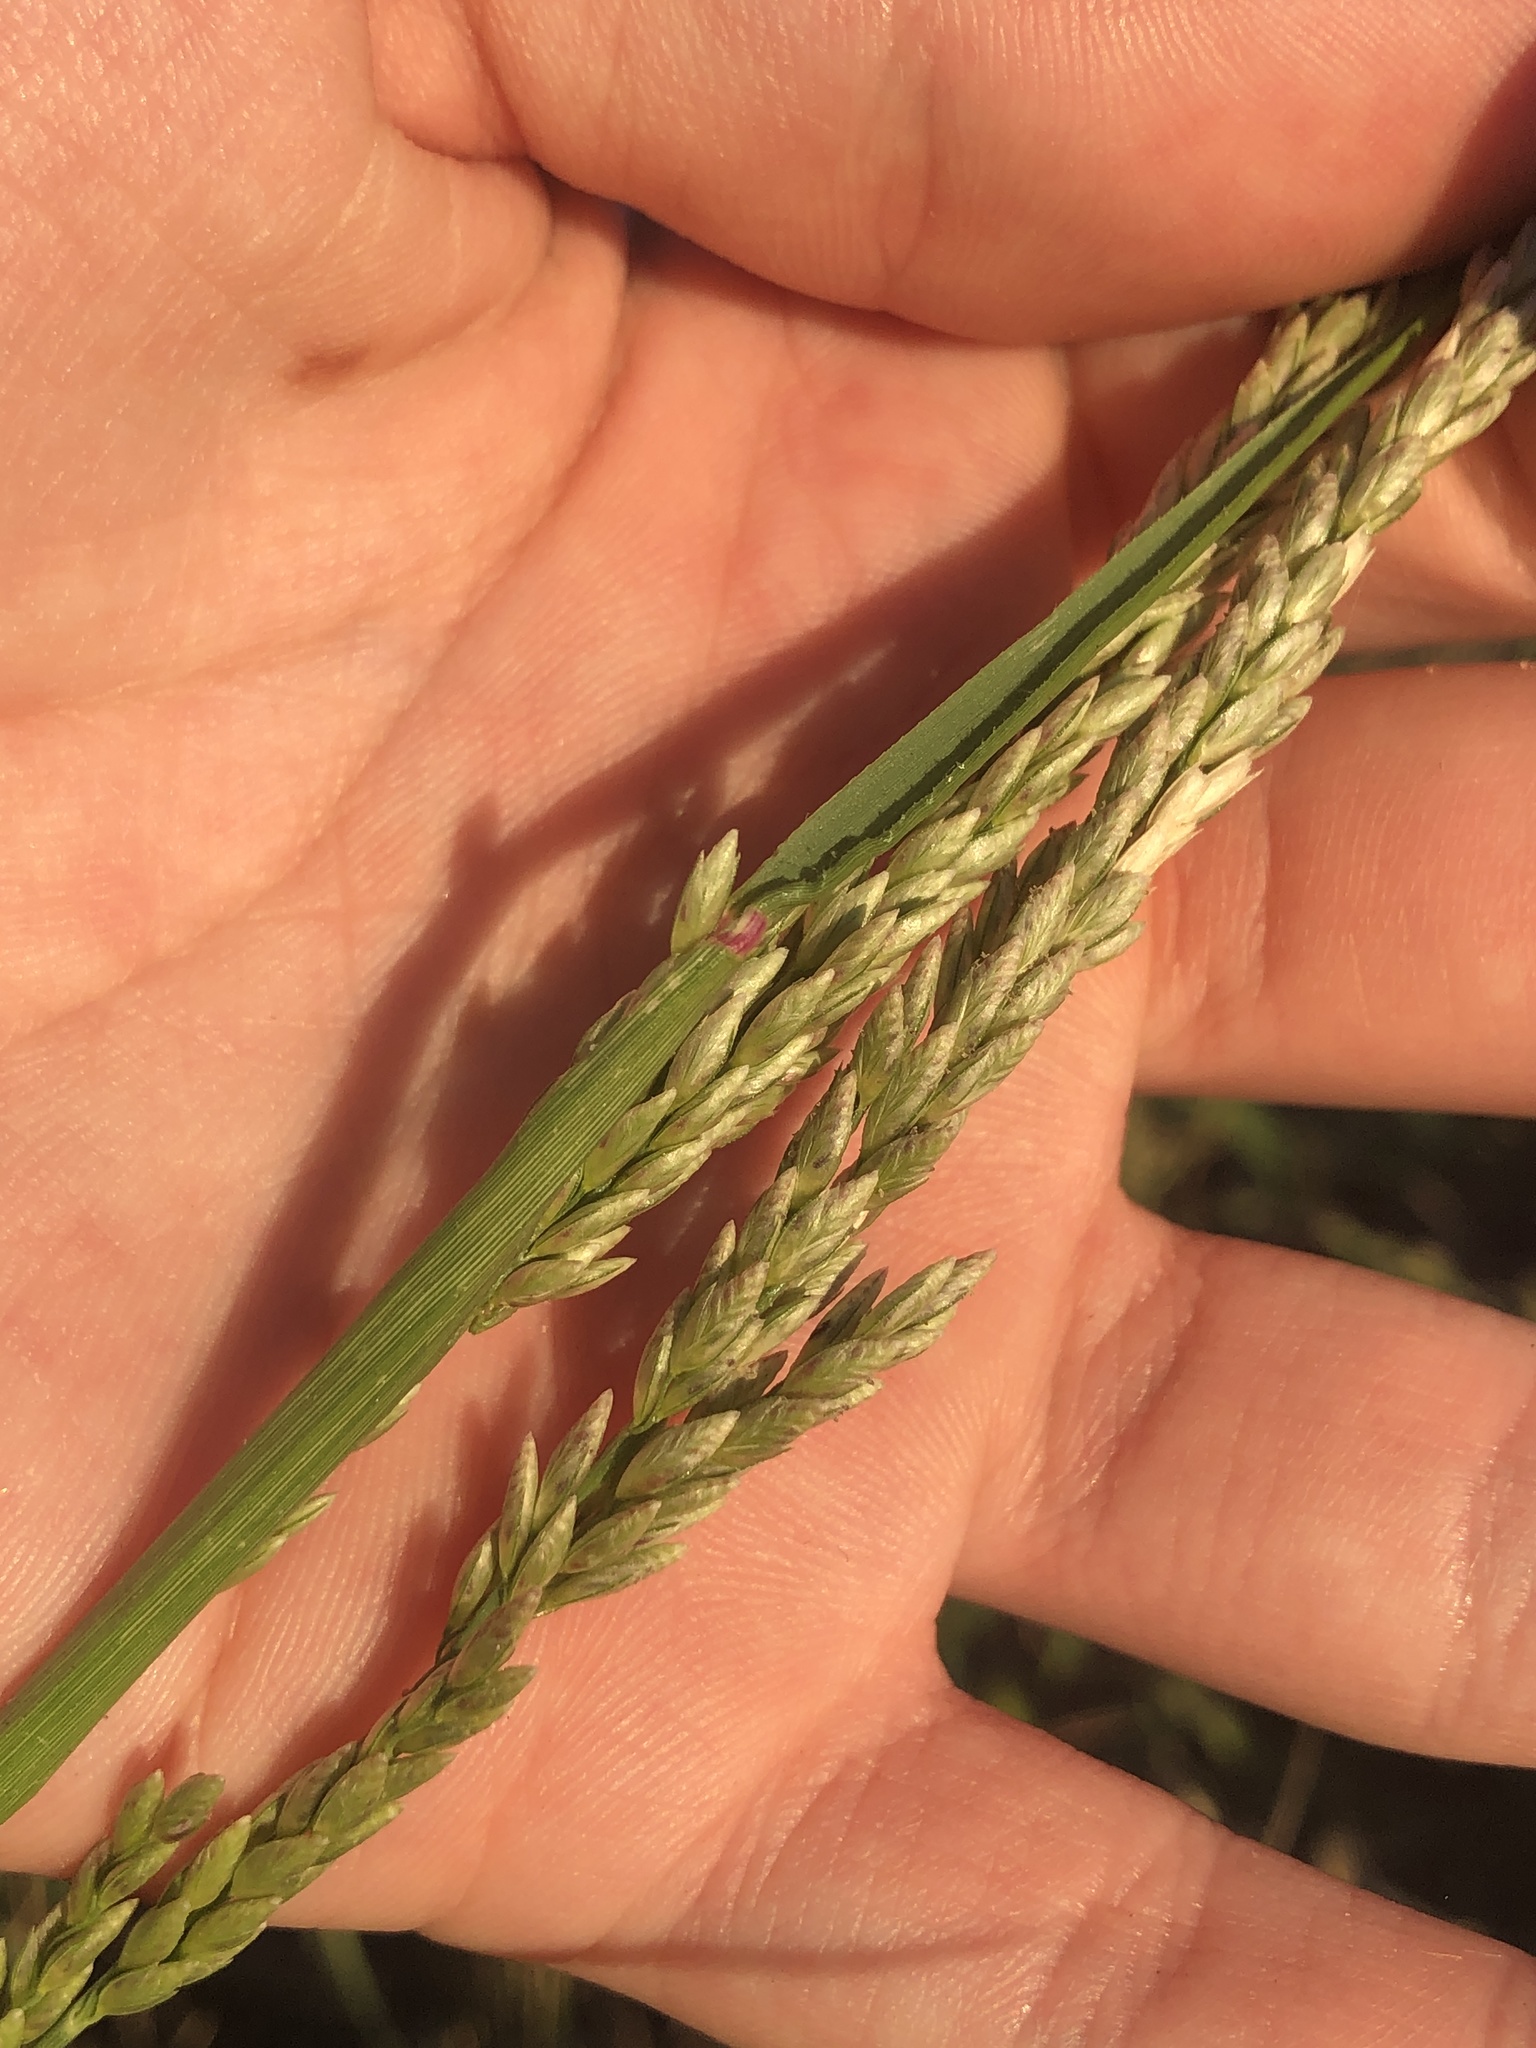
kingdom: Plantae
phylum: Tracheophyta
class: Liliopsida
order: Poales
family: Poaceae
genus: Tridens
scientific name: Tridens albescens
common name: White tridens
